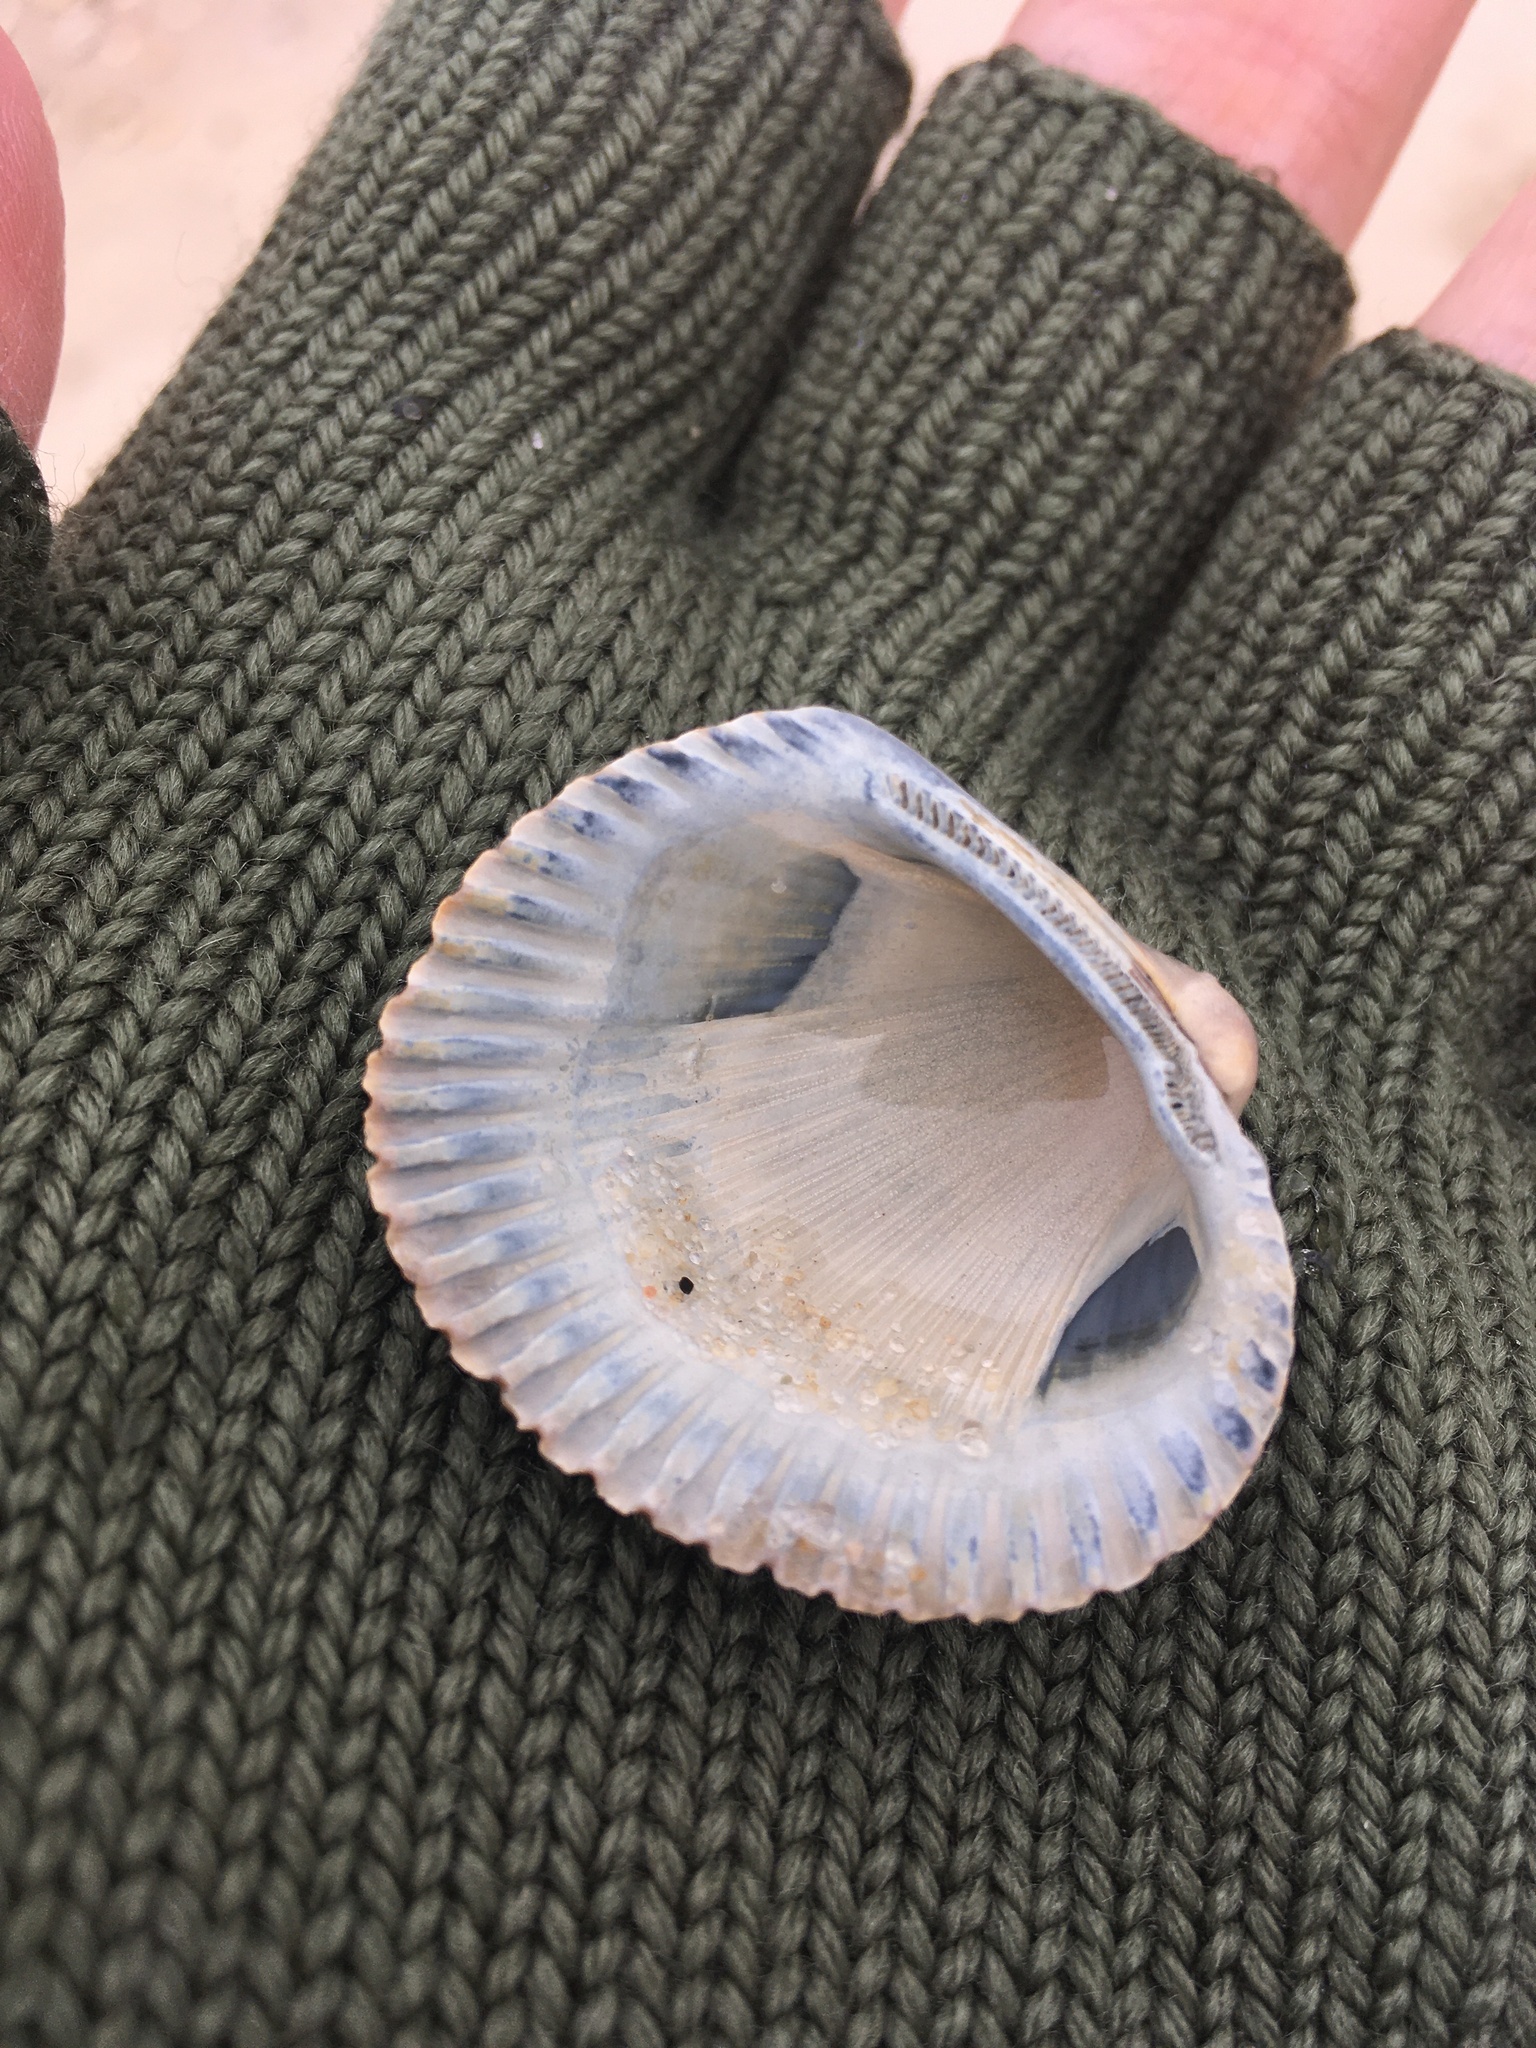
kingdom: Animalia
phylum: Mollusca
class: Bivalvia
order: Arcida
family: Arcidae
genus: Lunarca
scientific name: Lunarca ovalis
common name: Blood ark
